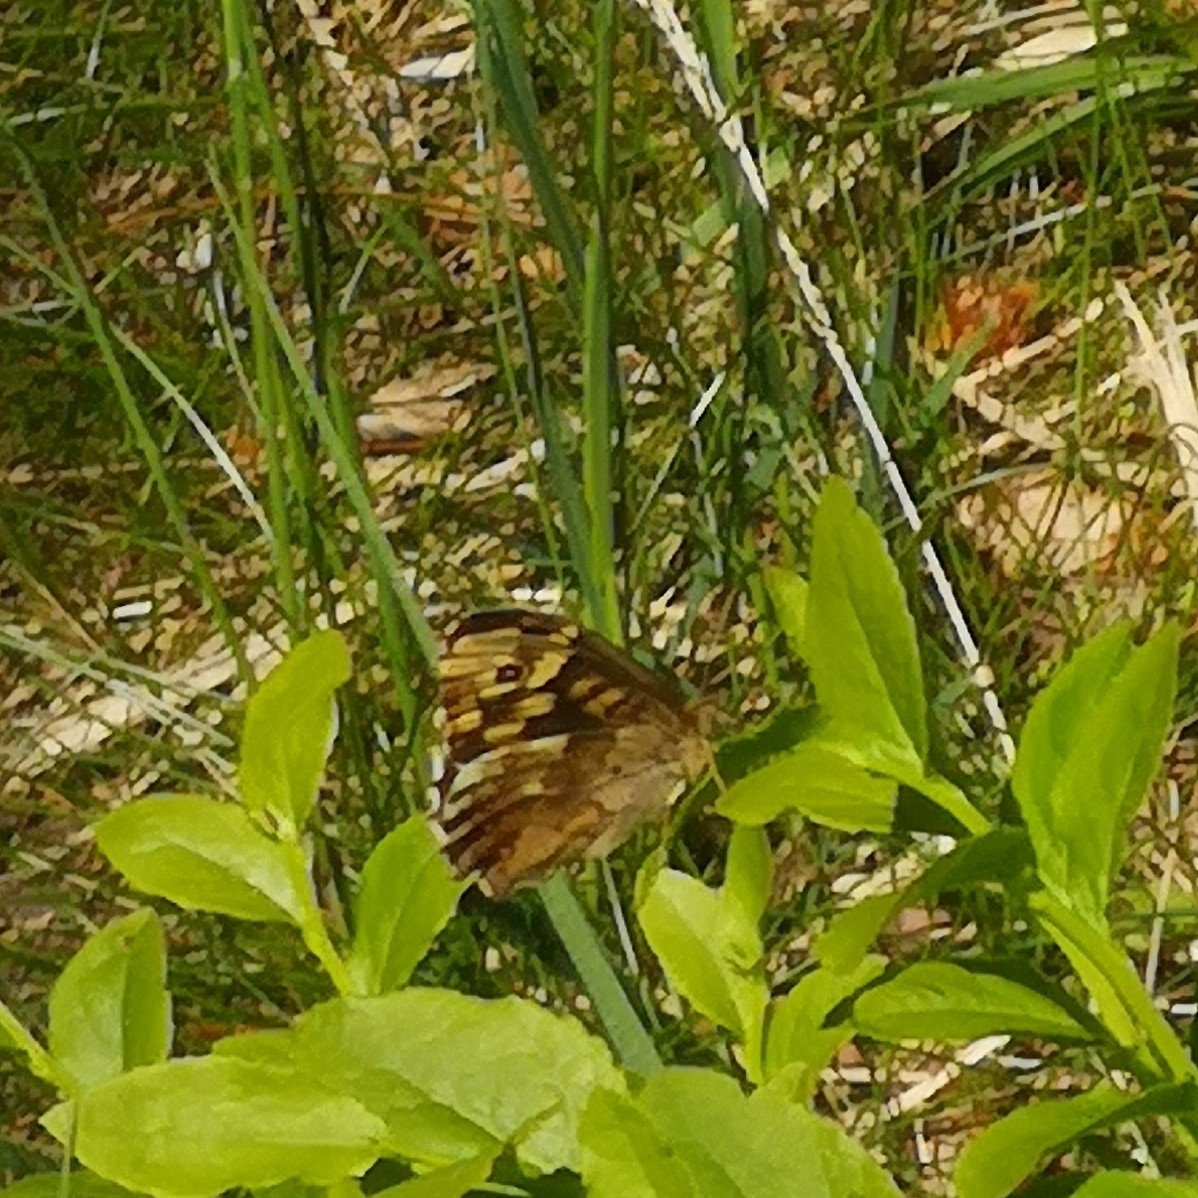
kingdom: Animalia
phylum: Arthropoda
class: Insecta
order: Lepidoptera
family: Nymphalidae
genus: Pararge
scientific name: Pararge aegeria
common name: Speckled wood
